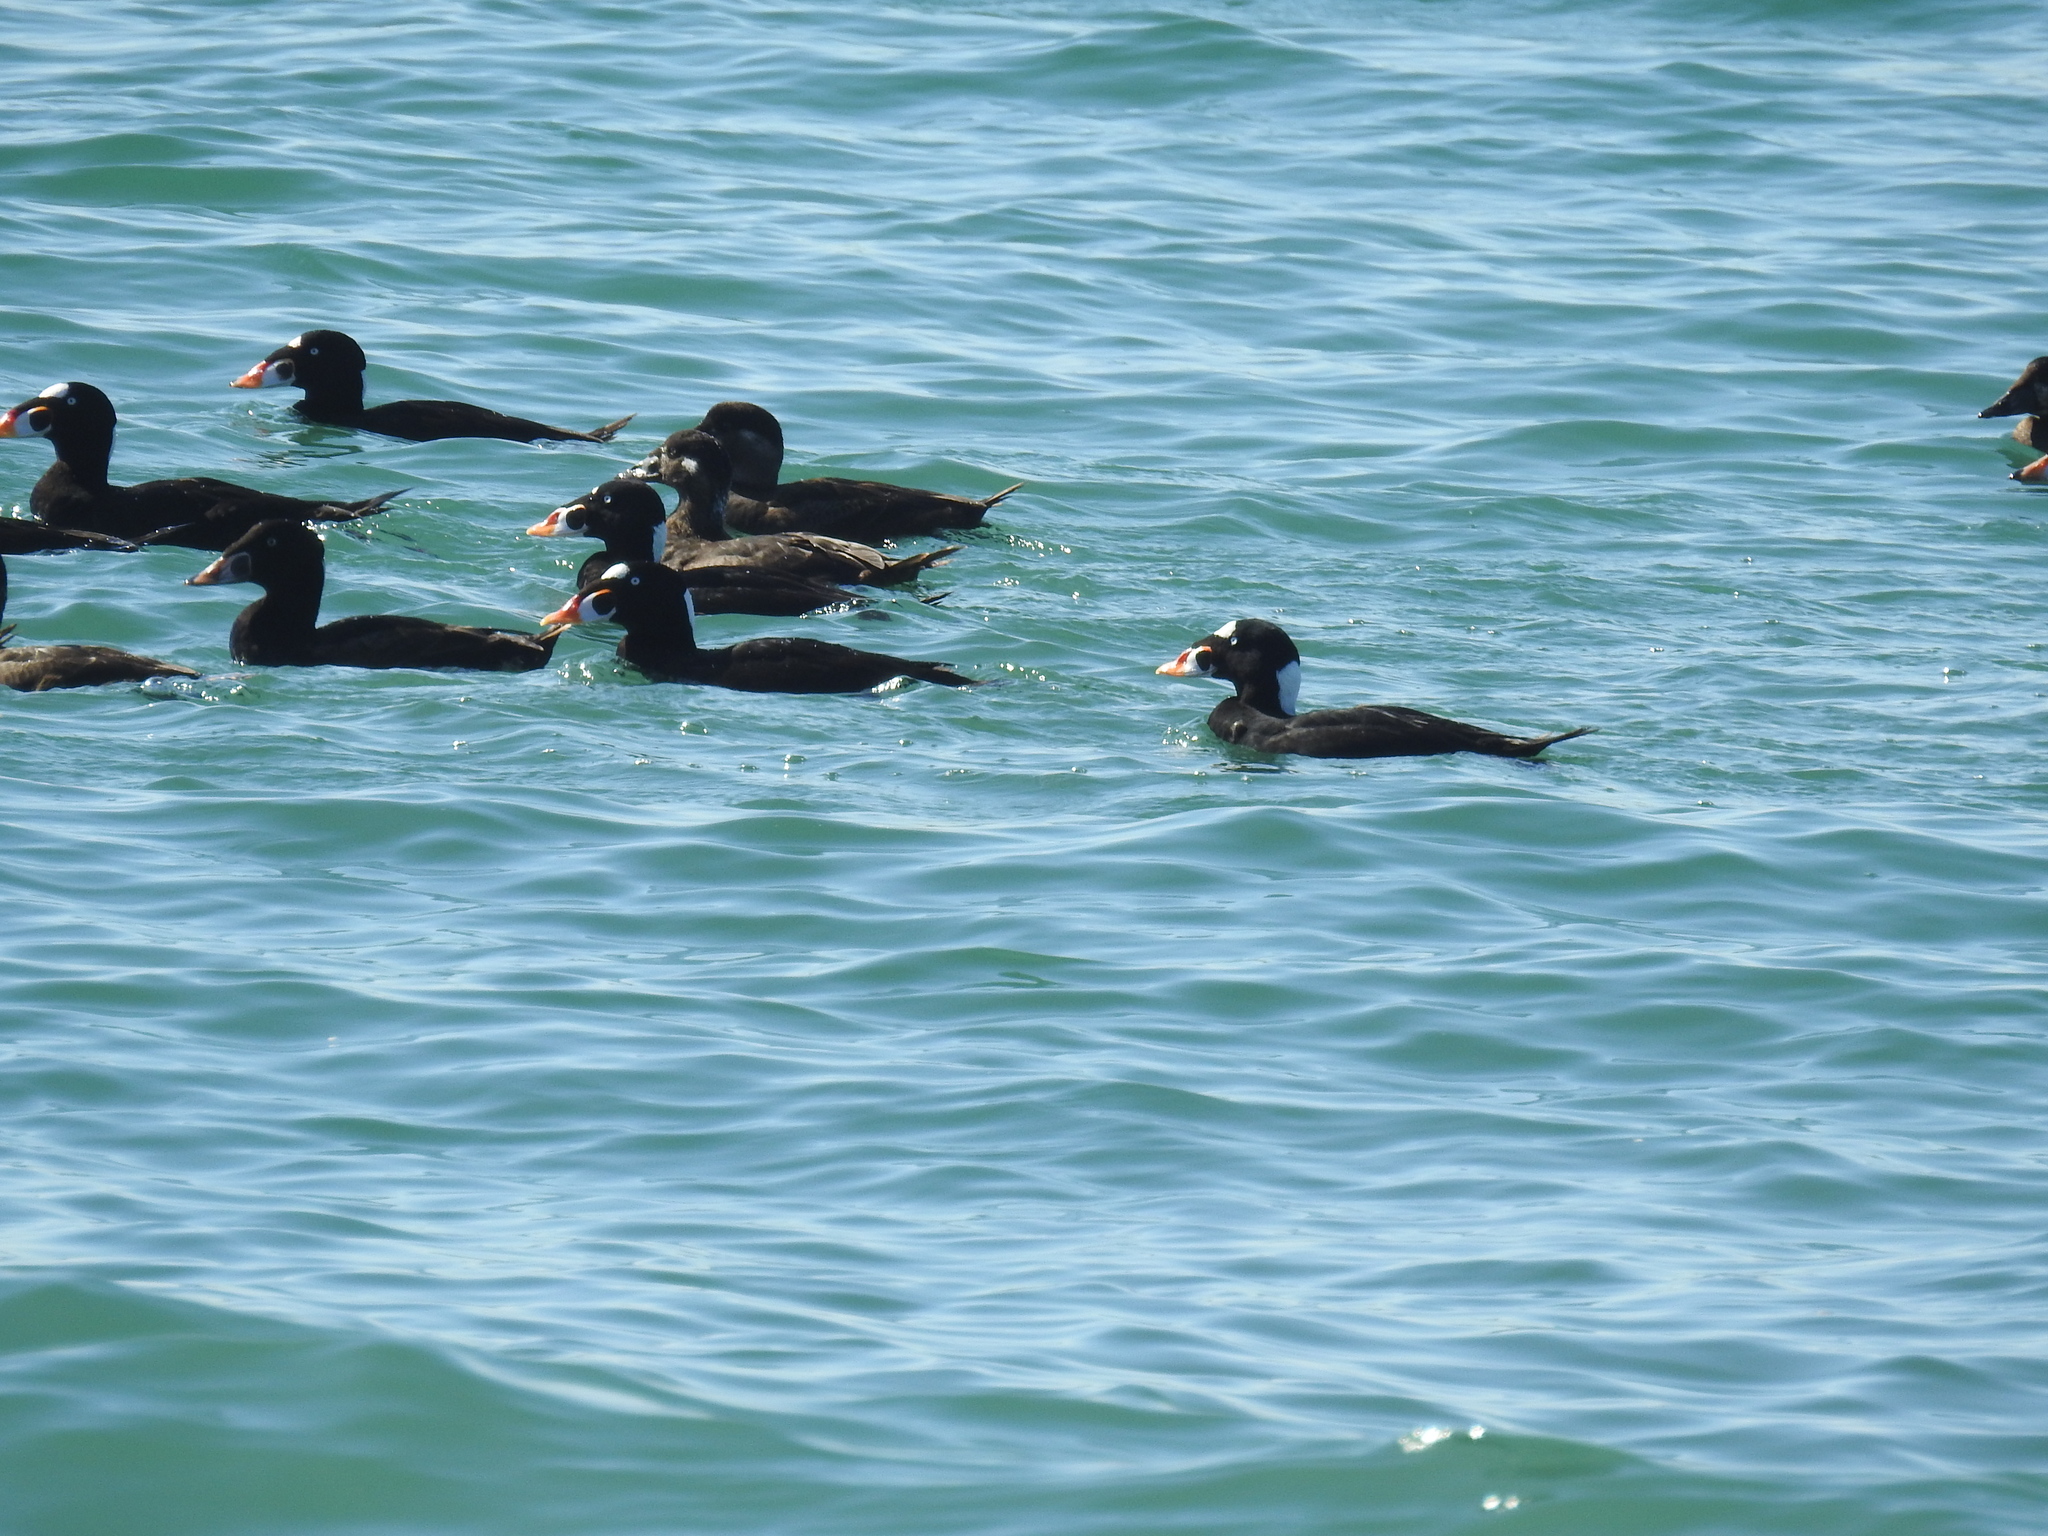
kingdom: Animalia
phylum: Chordata
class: Aves
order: Anseriformes
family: Anatidae
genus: Melanitta
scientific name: Melanitta perspicillata
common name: Surf scoter
